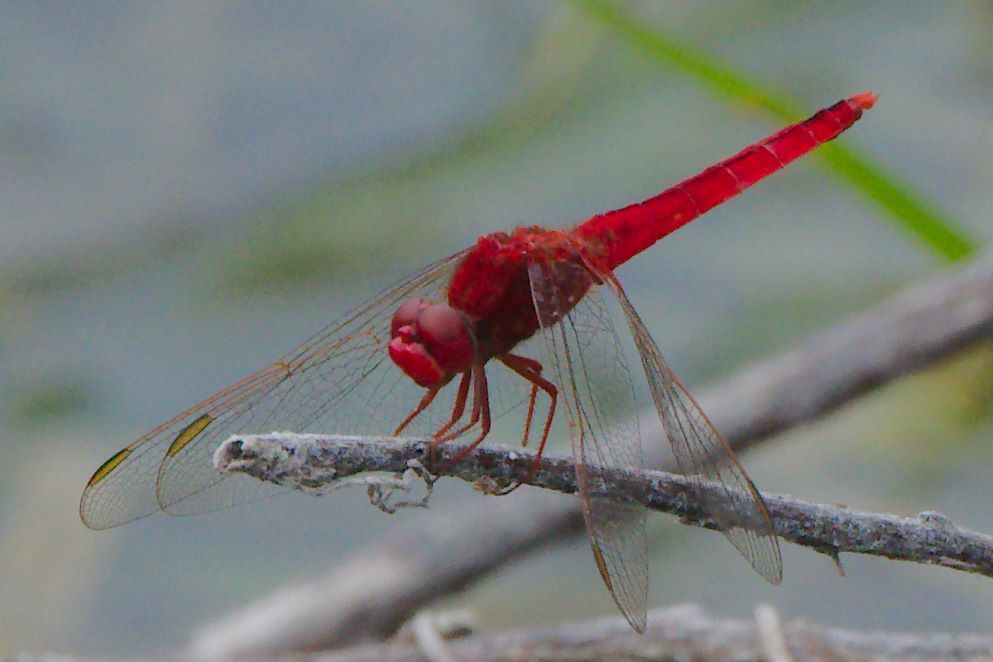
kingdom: Animalia
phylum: Arthropoda
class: Insecta
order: Odonata
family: Libellulidae
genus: Crocothemis
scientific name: Crocothemis servilia
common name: Scarlet skimmer
